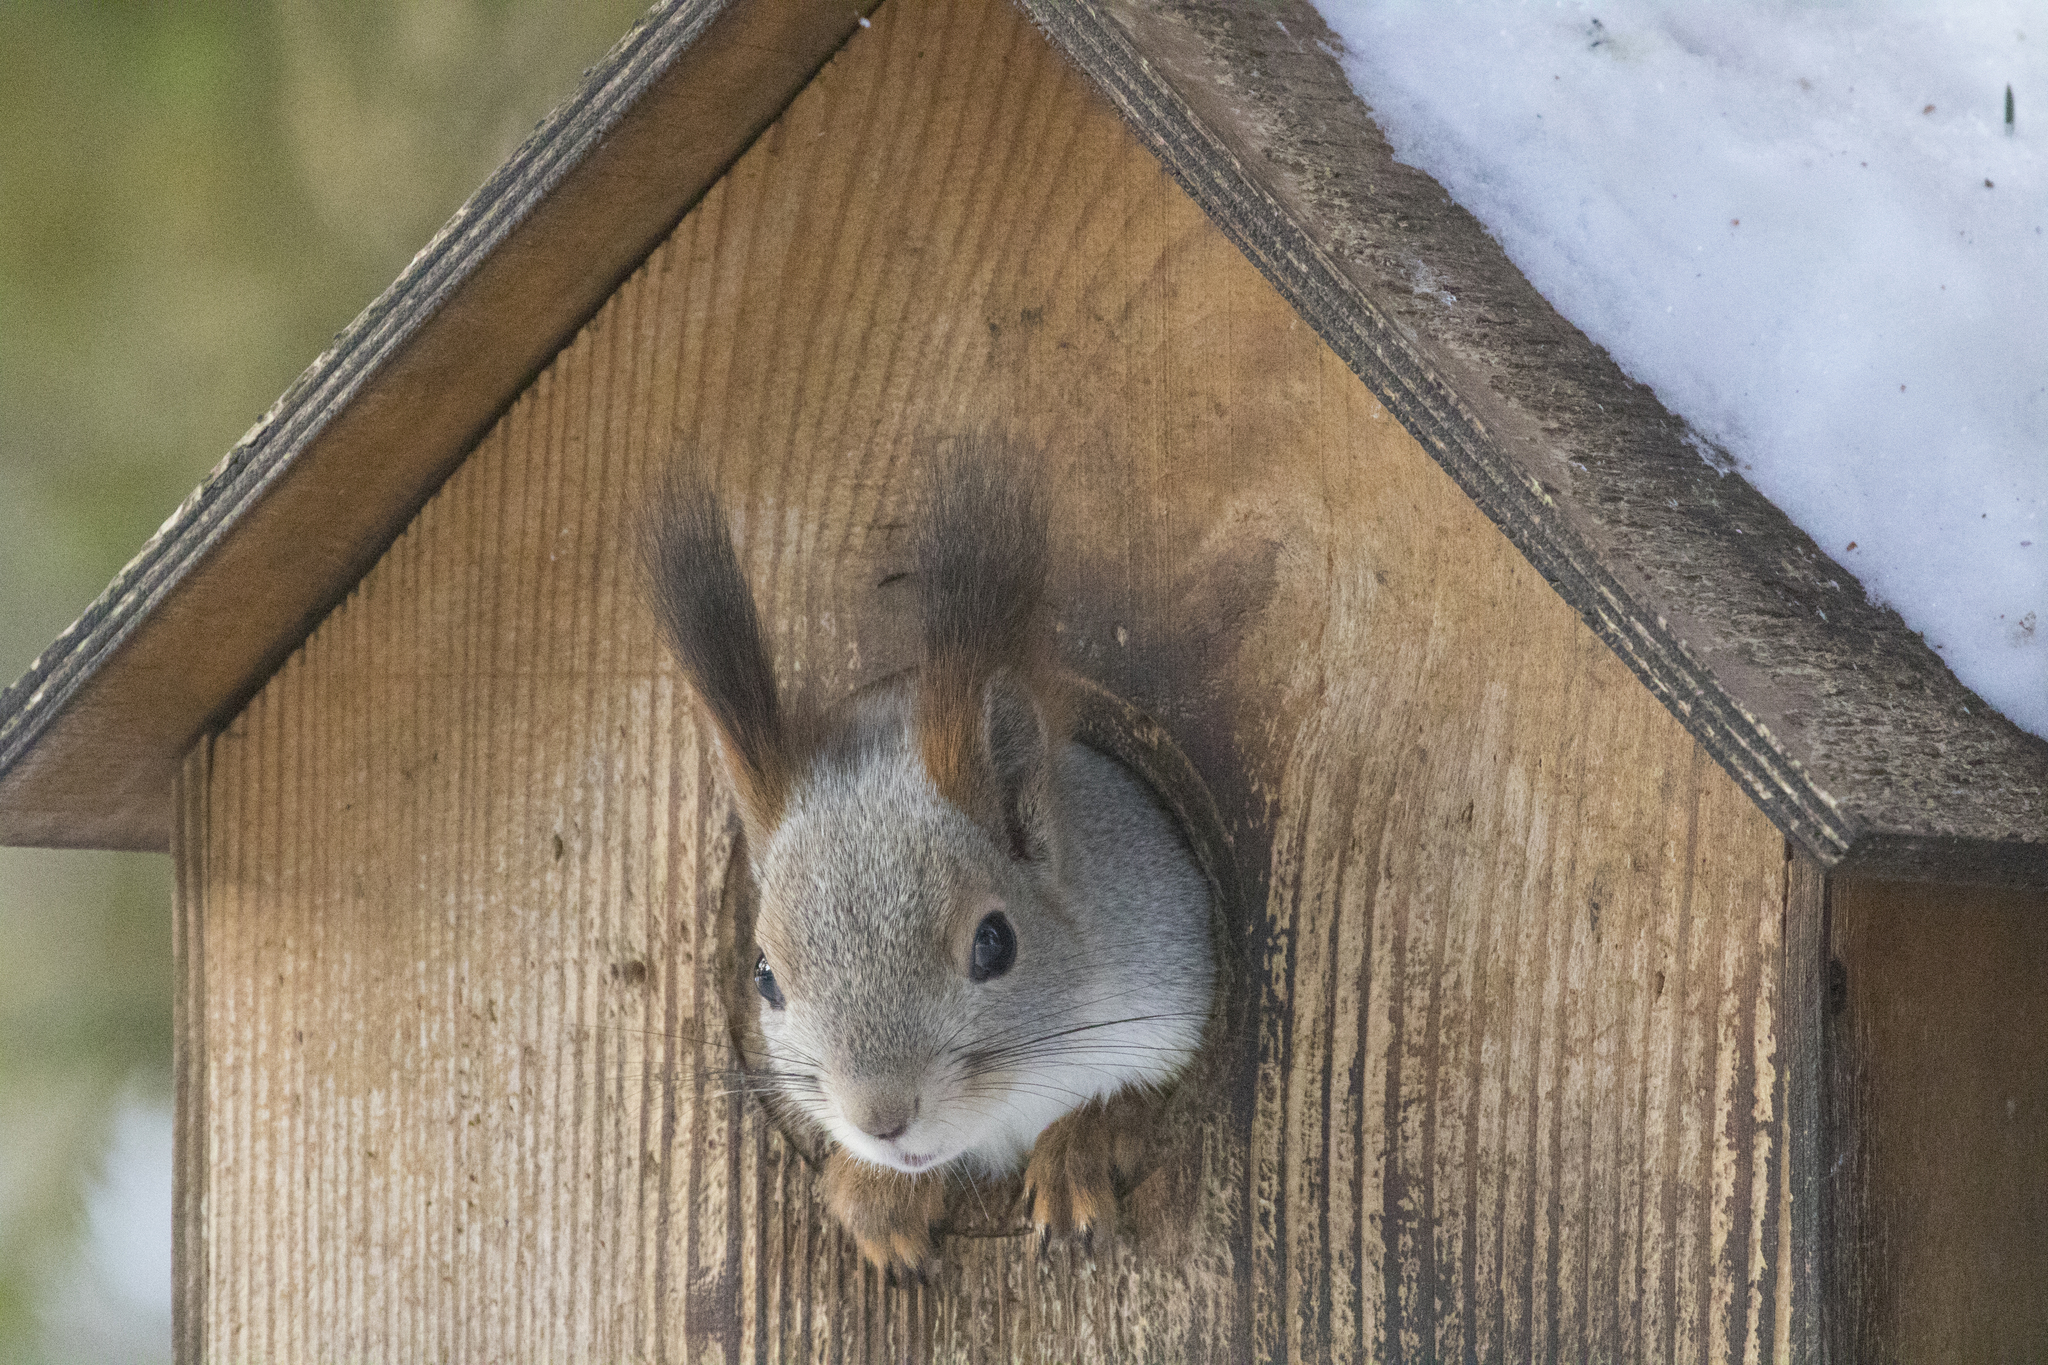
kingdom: Animalia
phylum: Chordata
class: Mammalia
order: Rodentia
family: Sciuridae
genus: Sciurus
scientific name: Sciurus vulgaris
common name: Eurasian red squirrel
